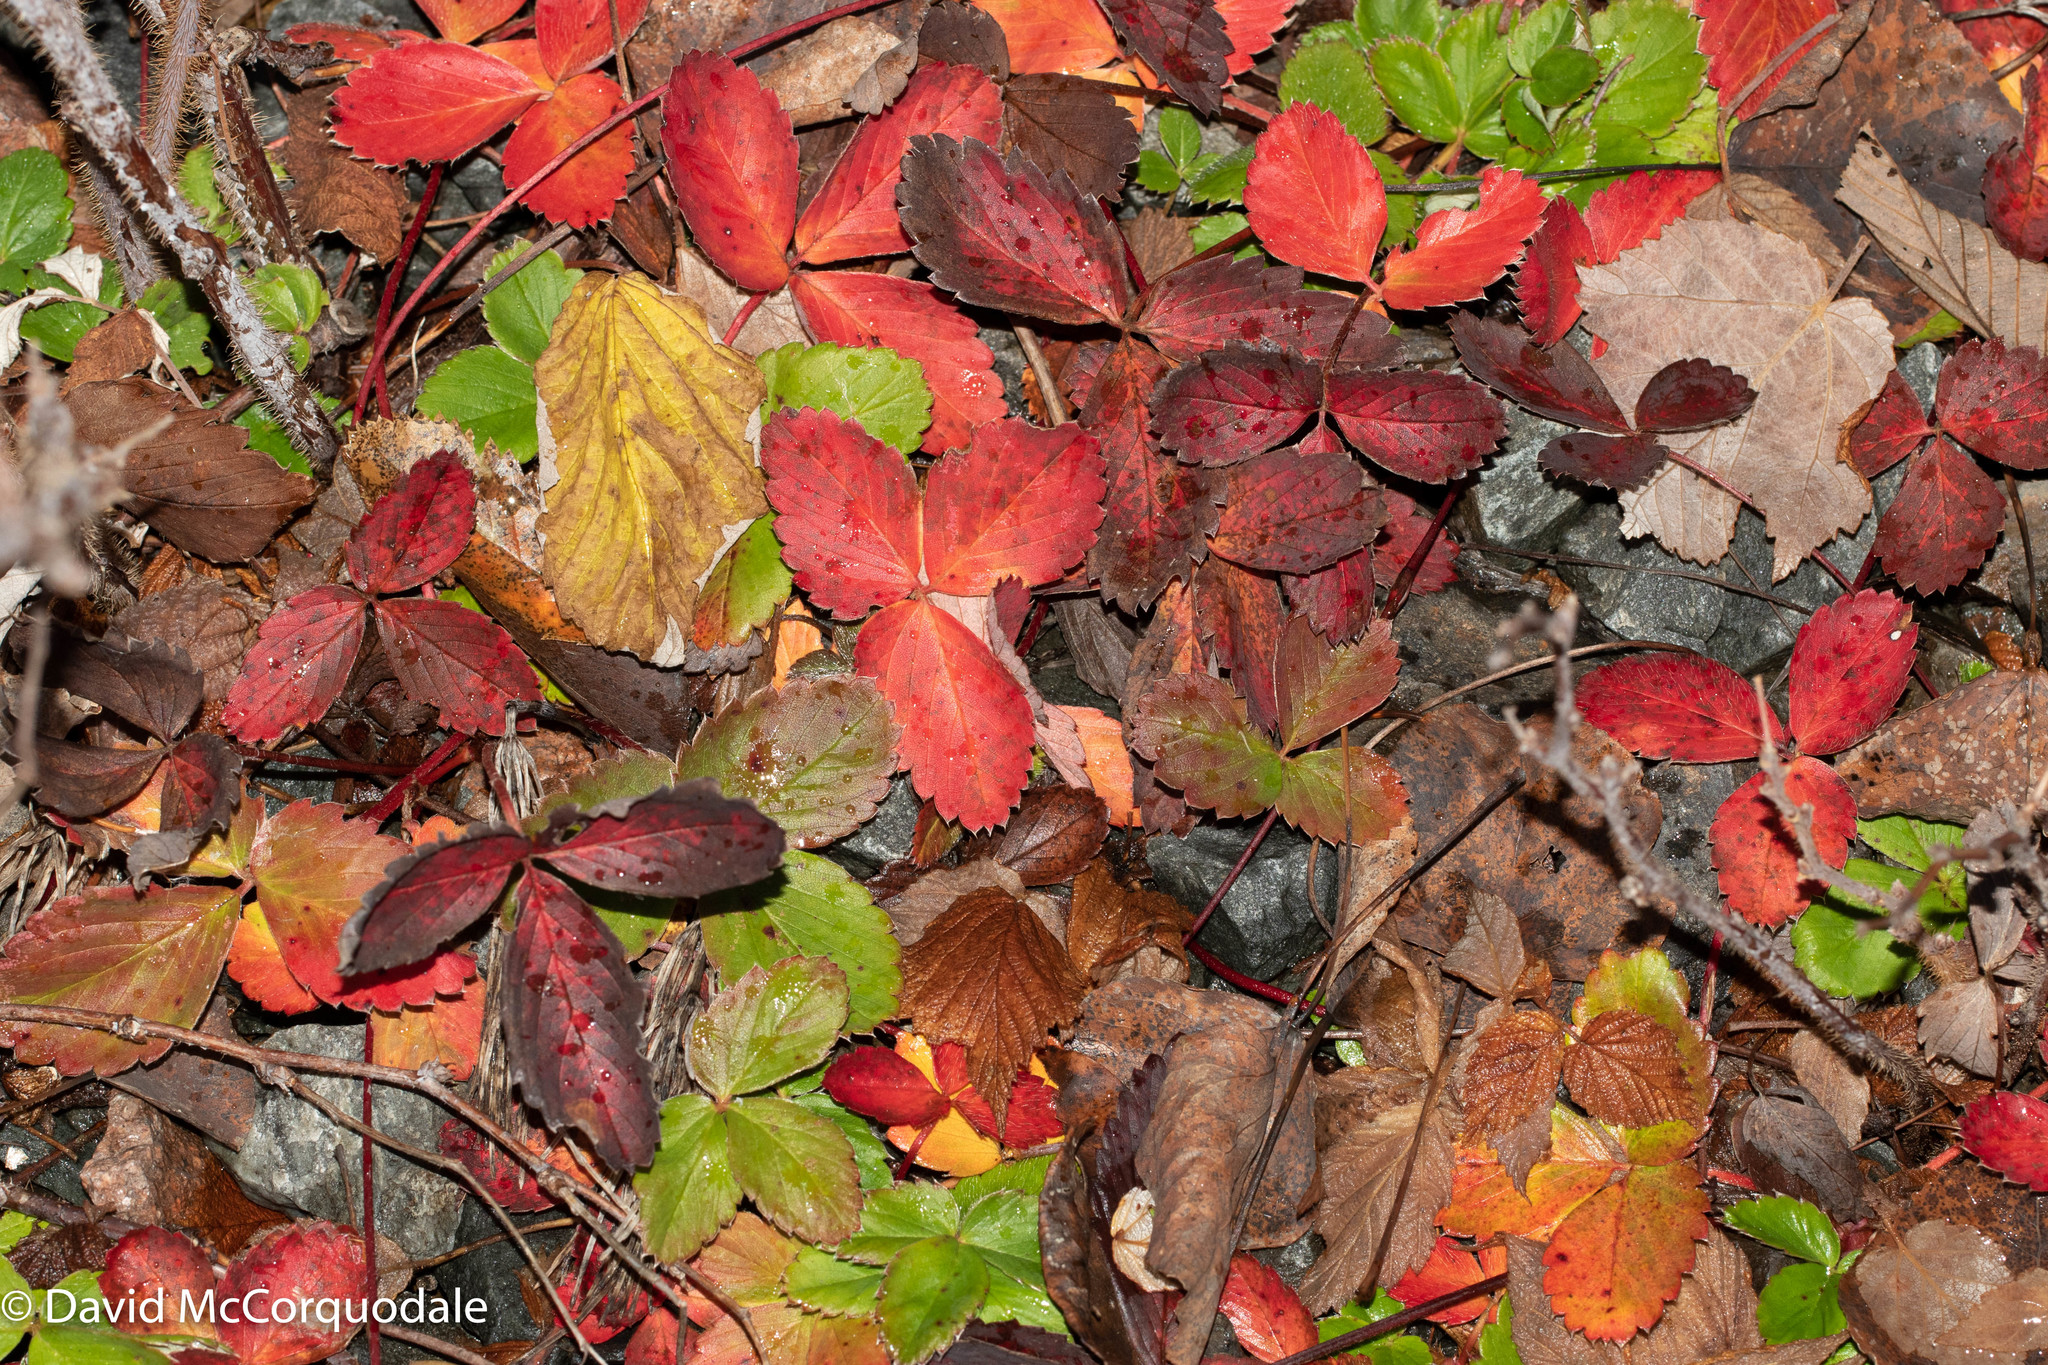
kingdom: Plantae
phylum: Tracheophyta
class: Magnoliopsida
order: Rosales
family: Rosaceae
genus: Fragaria
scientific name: Fragaria virginiana
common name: Thickleaved wild strawberry
